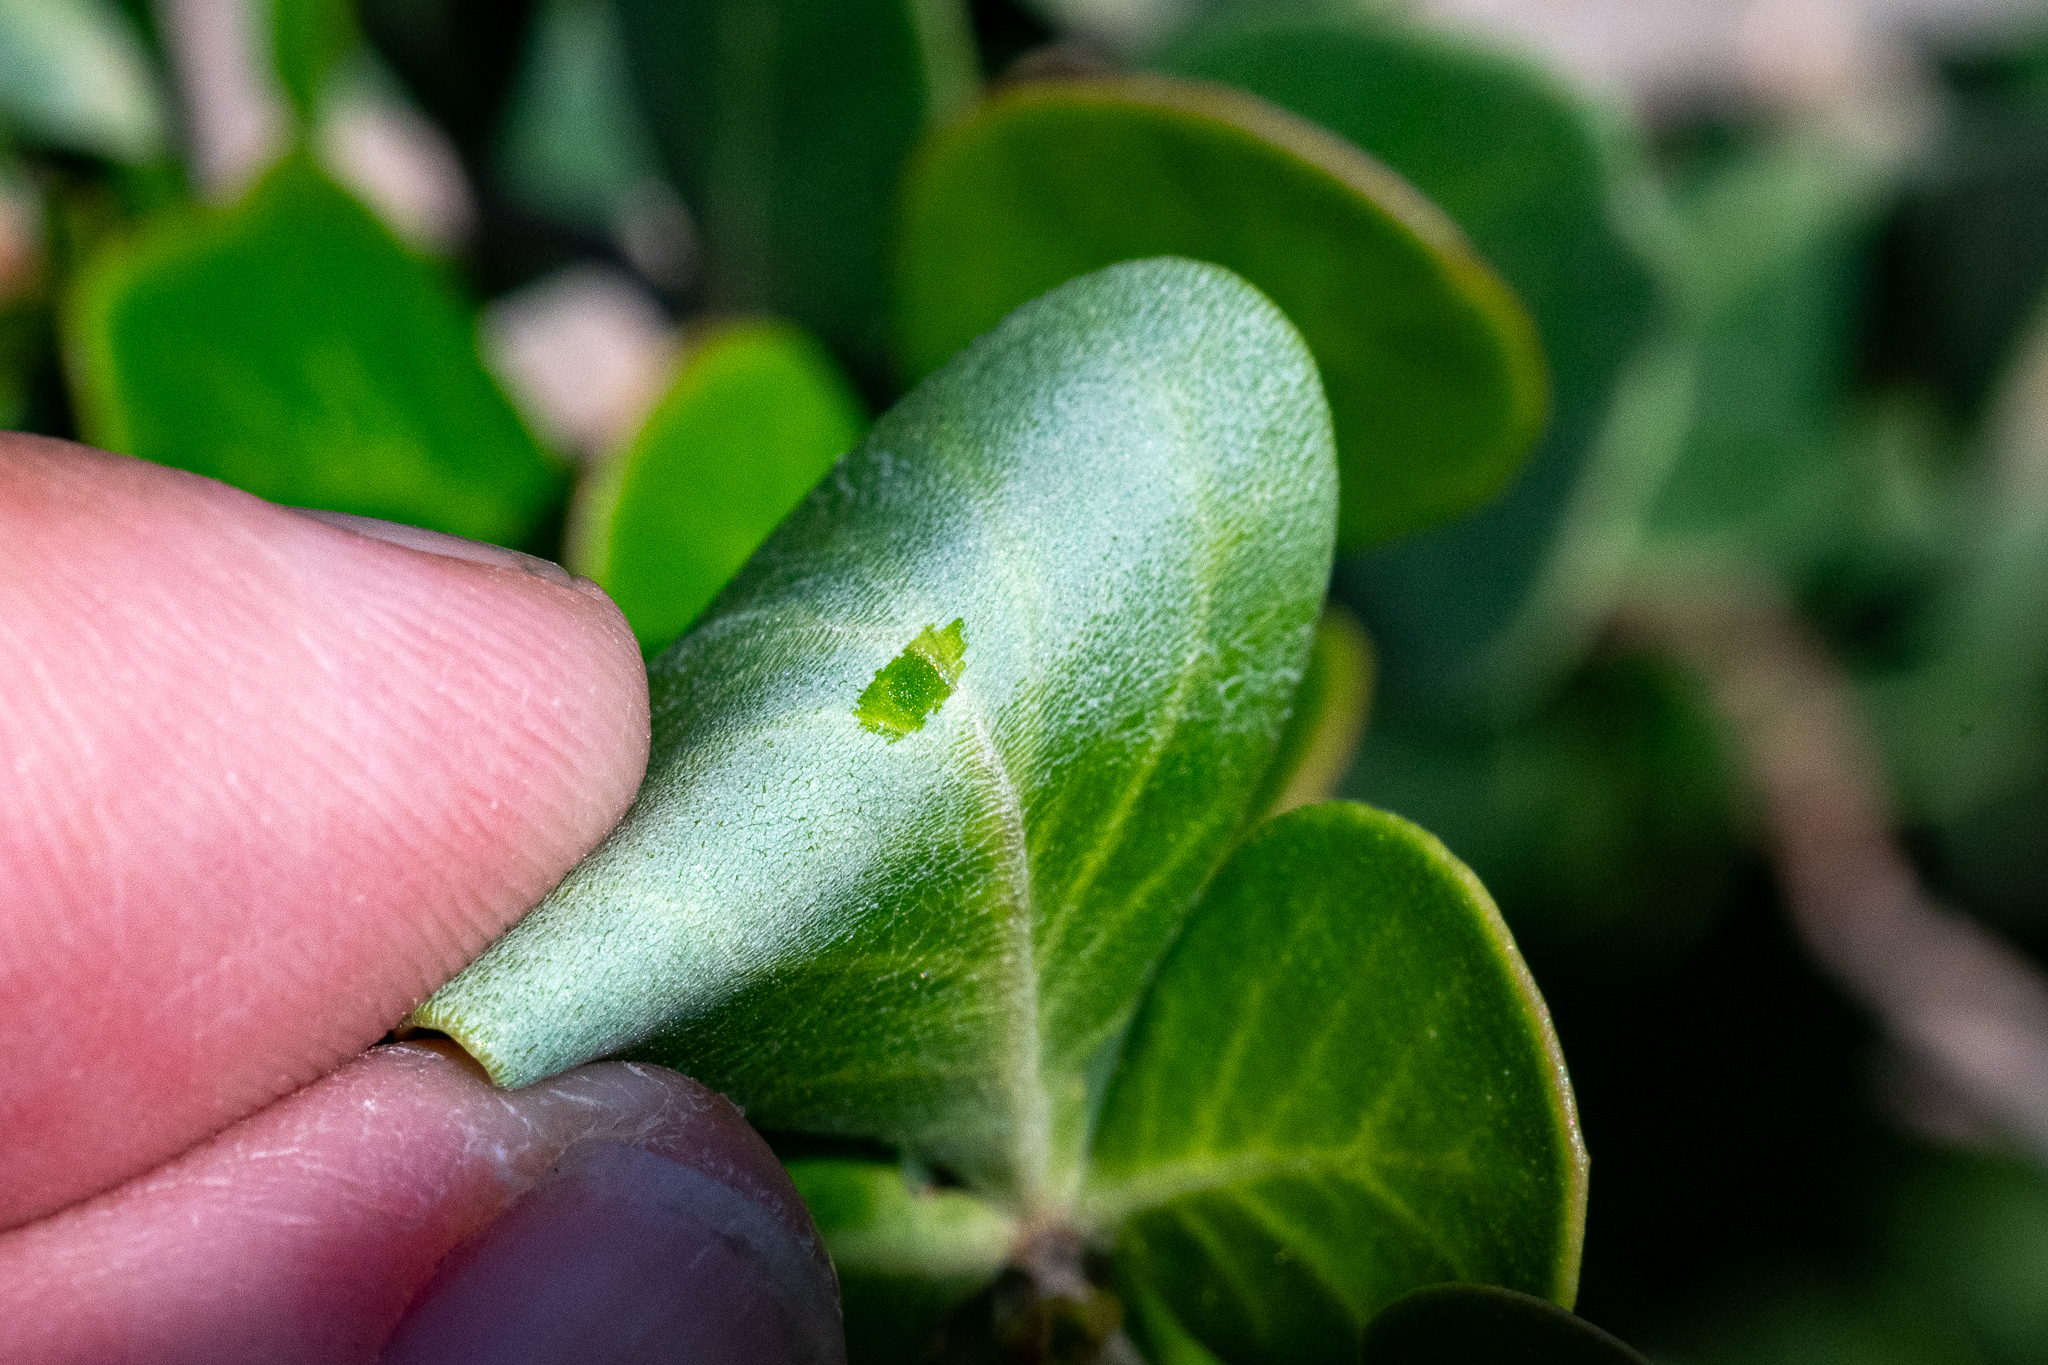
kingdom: Plantae
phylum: Tracheophyta
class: Magnoliopsida
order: Sapindales
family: Anacardiaceae
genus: Searsia
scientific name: Searsia lucida
